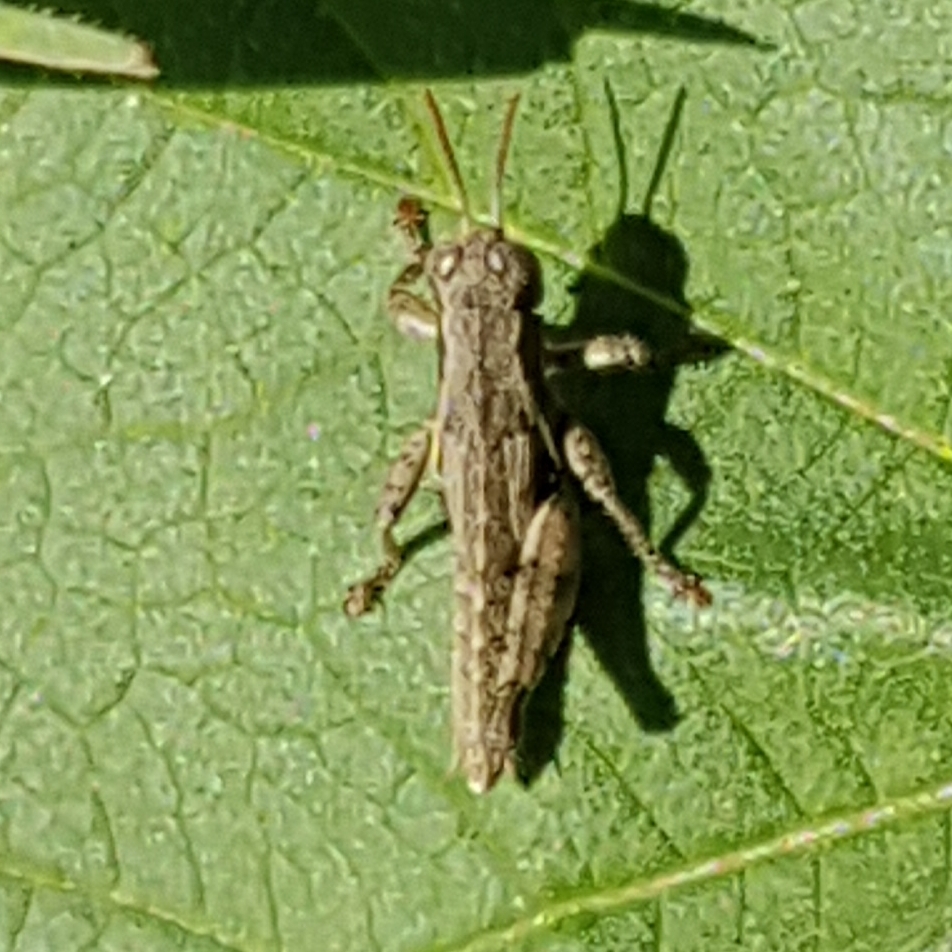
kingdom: Animalia
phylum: Arthropoda
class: Insecta
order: Orthoptera
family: Acrididae
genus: Pezotettix
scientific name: Pezotettix giornae
